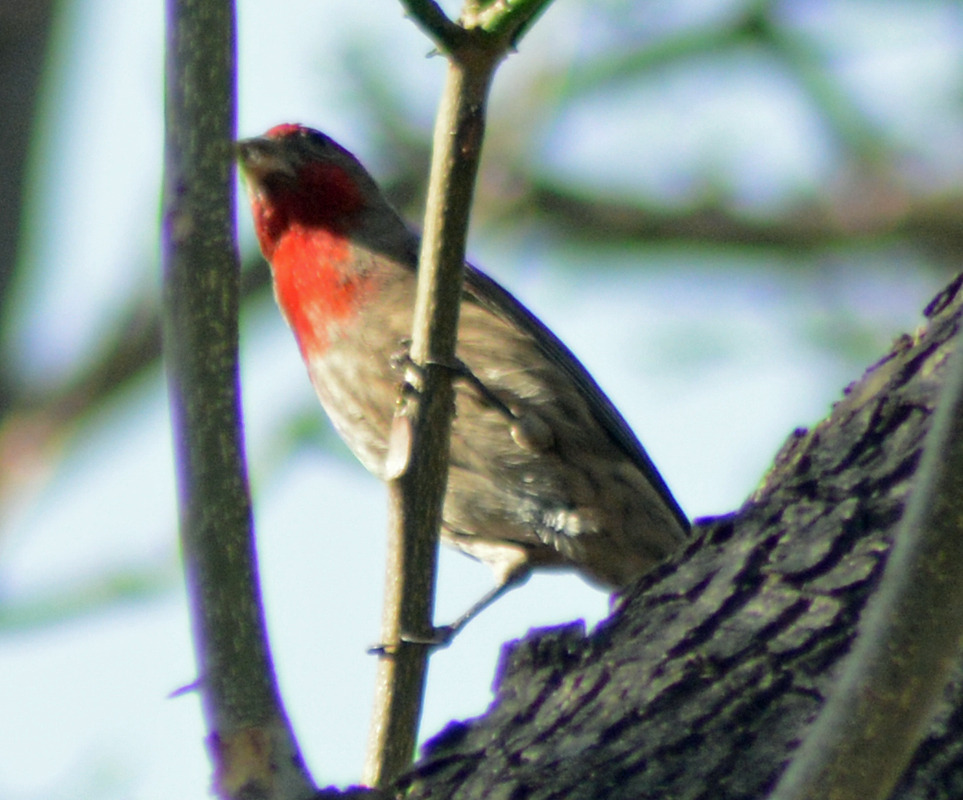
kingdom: Animalia
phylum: Chordata
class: Aves
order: Passeriformes
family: Fringillidae
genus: Haemorhous
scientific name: Haemorhous mexicanus
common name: House finch
